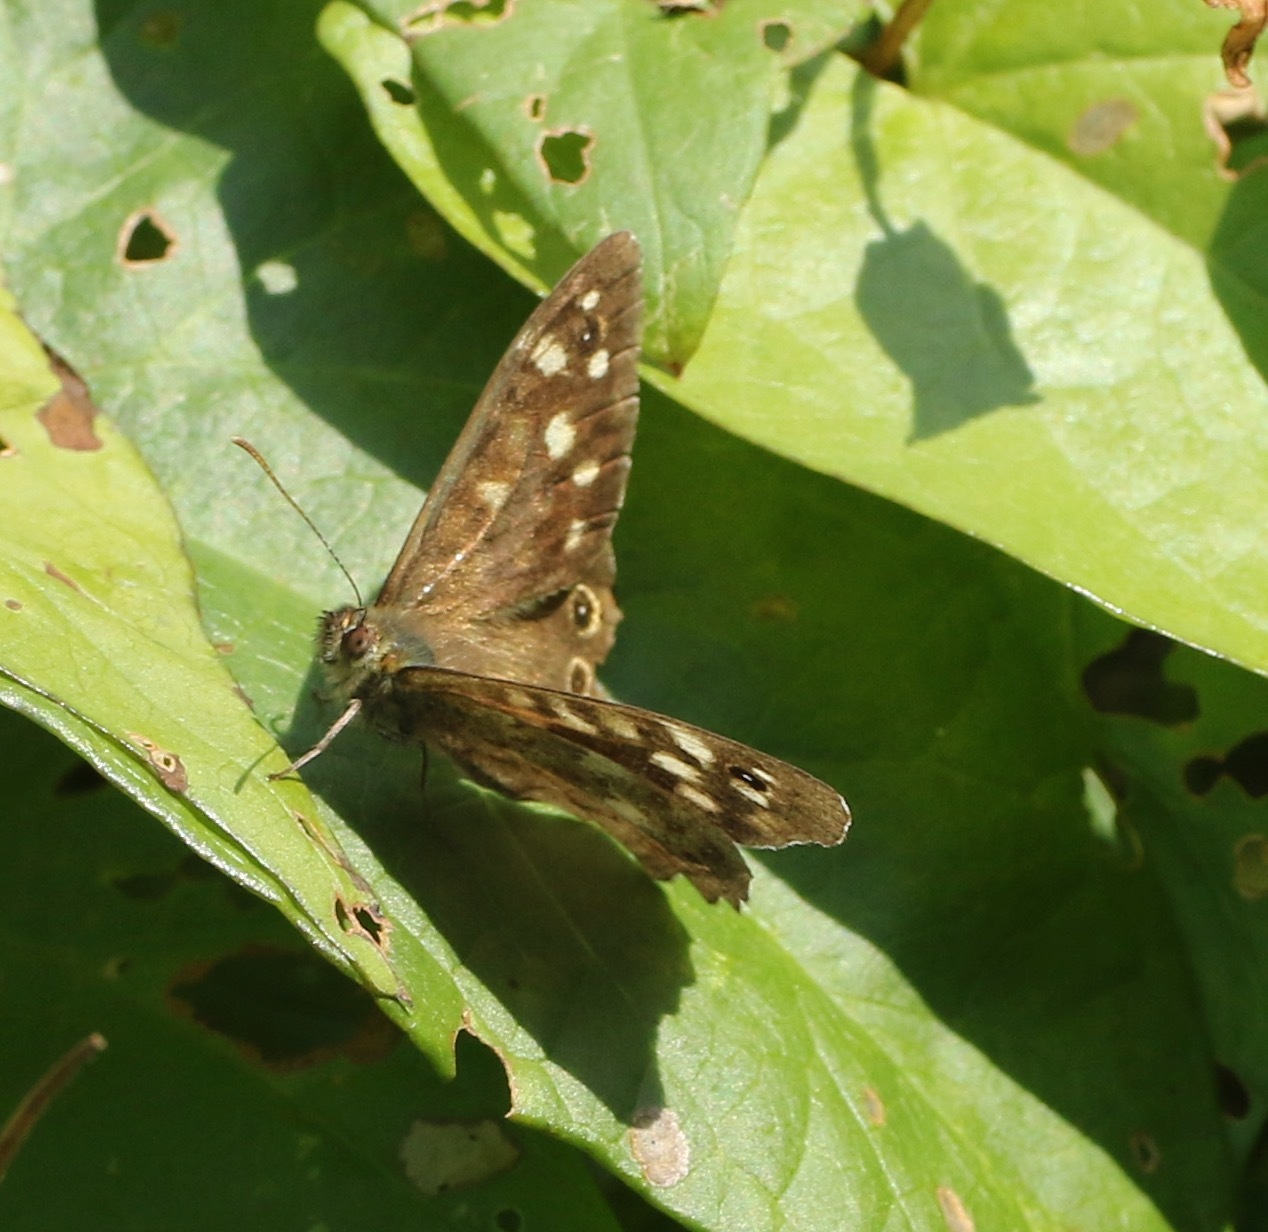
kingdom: Animalia
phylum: Arthropoda
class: Insecta
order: Lepidoptera
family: Nymphalidae
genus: Pararge
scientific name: Pararge aegeria
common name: Speckled wood
